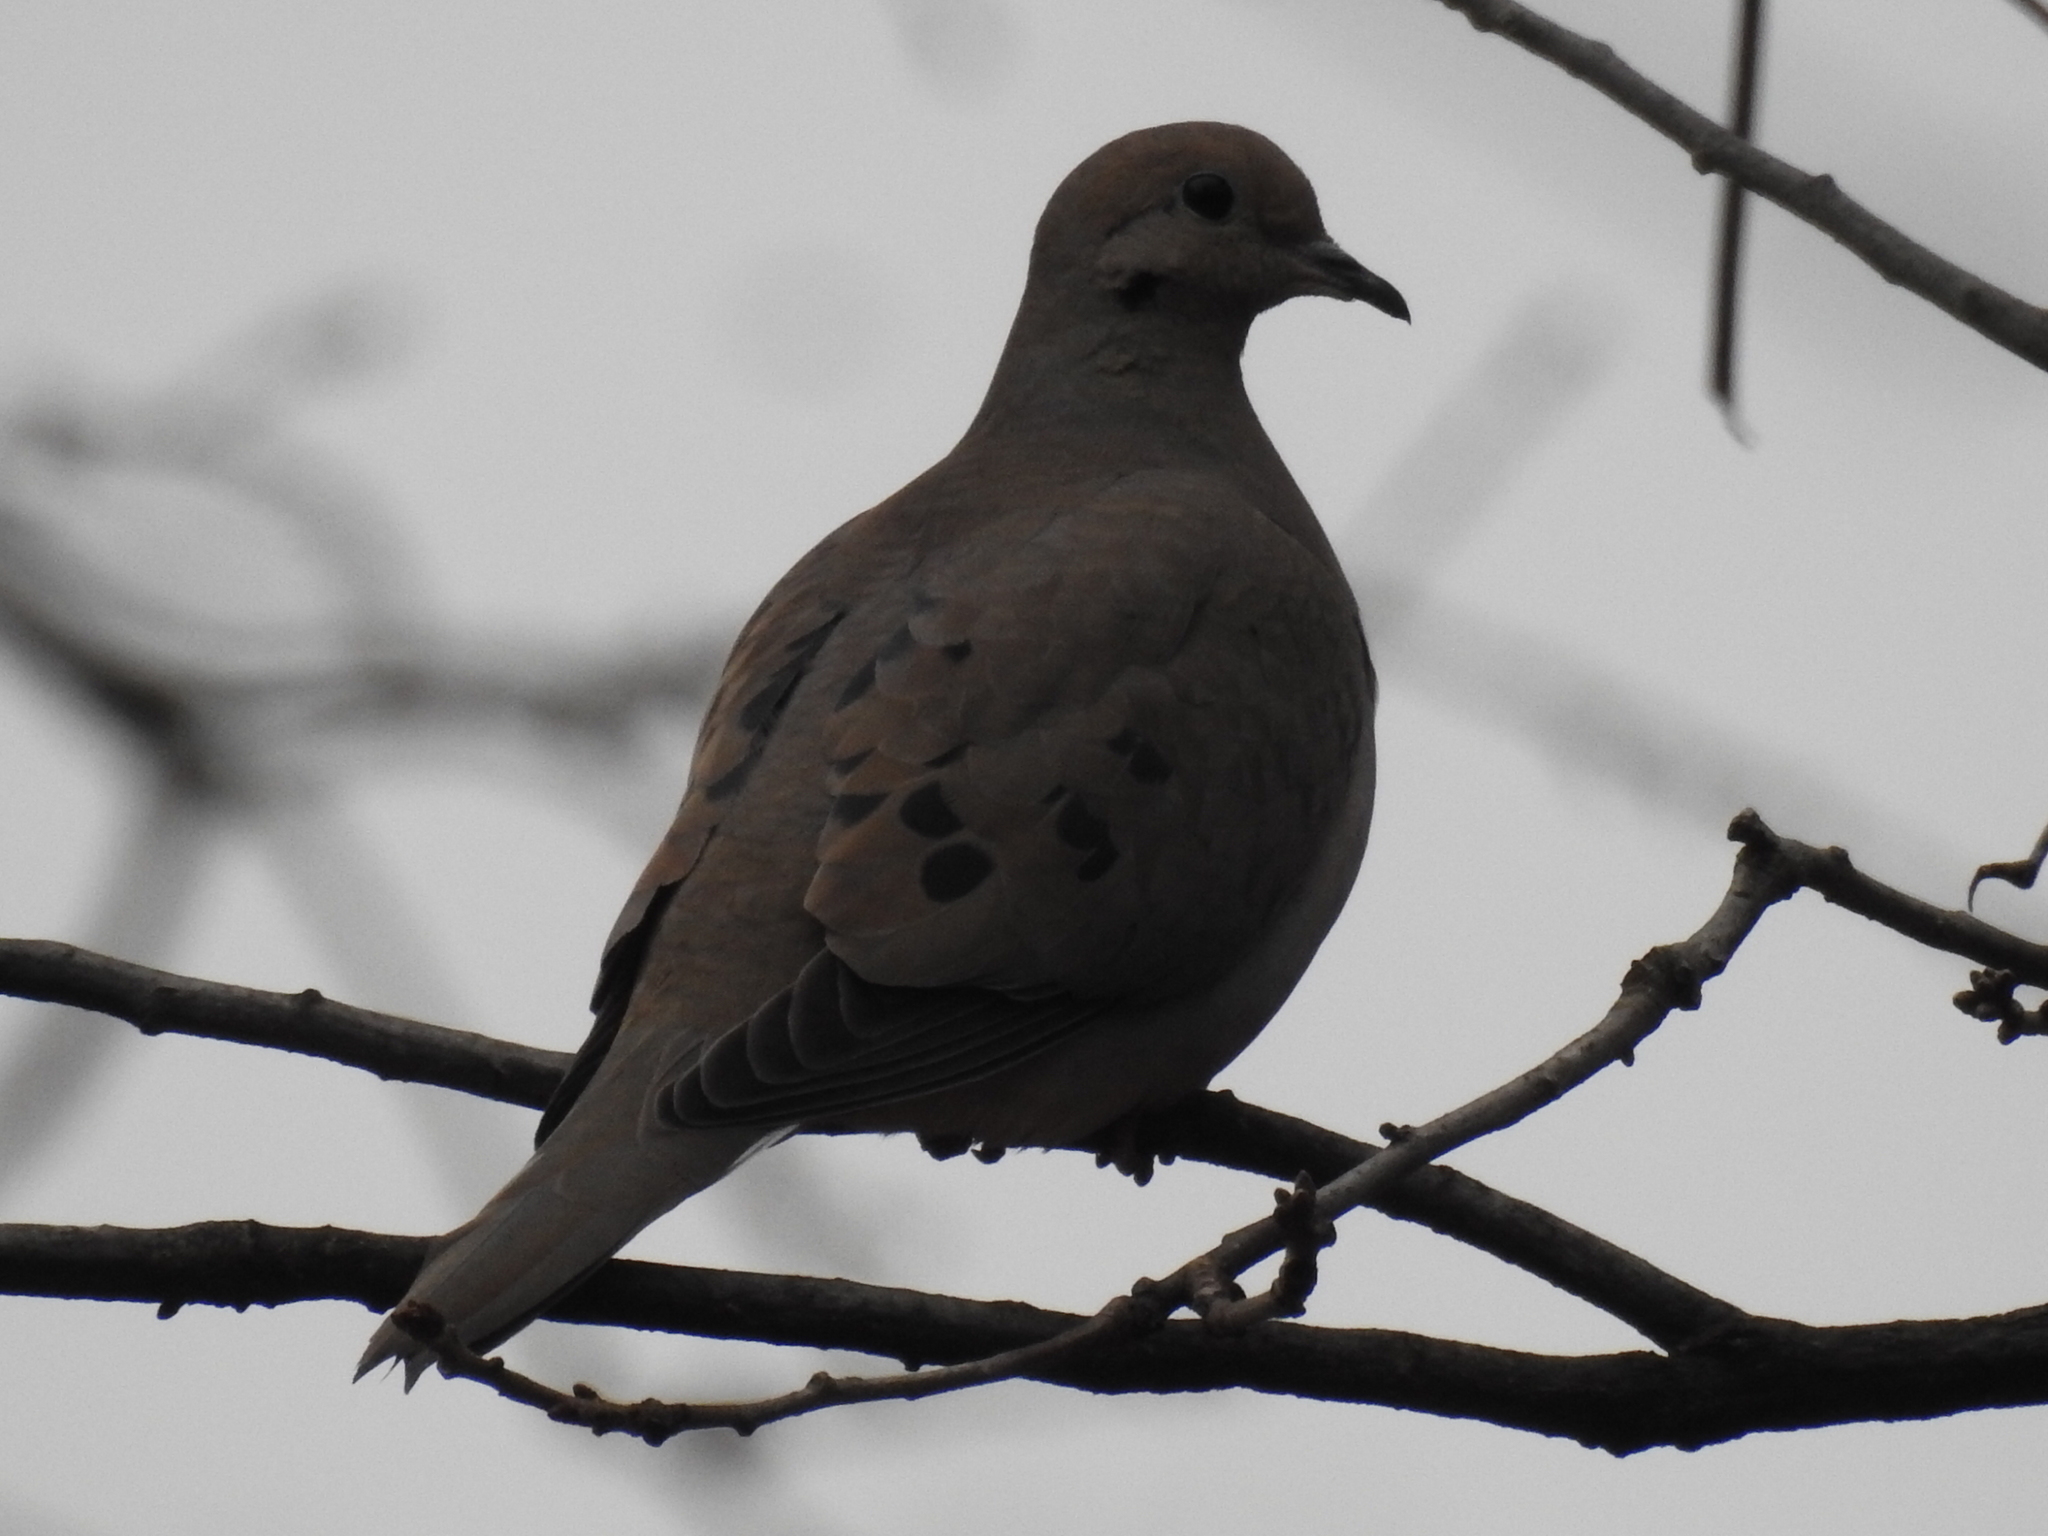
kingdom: Animalia
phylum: Chordata
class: Aves
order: Columbiformes
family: Columbidae
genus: Zenaida
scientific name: Zenaida macroura
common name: Mourning dove
